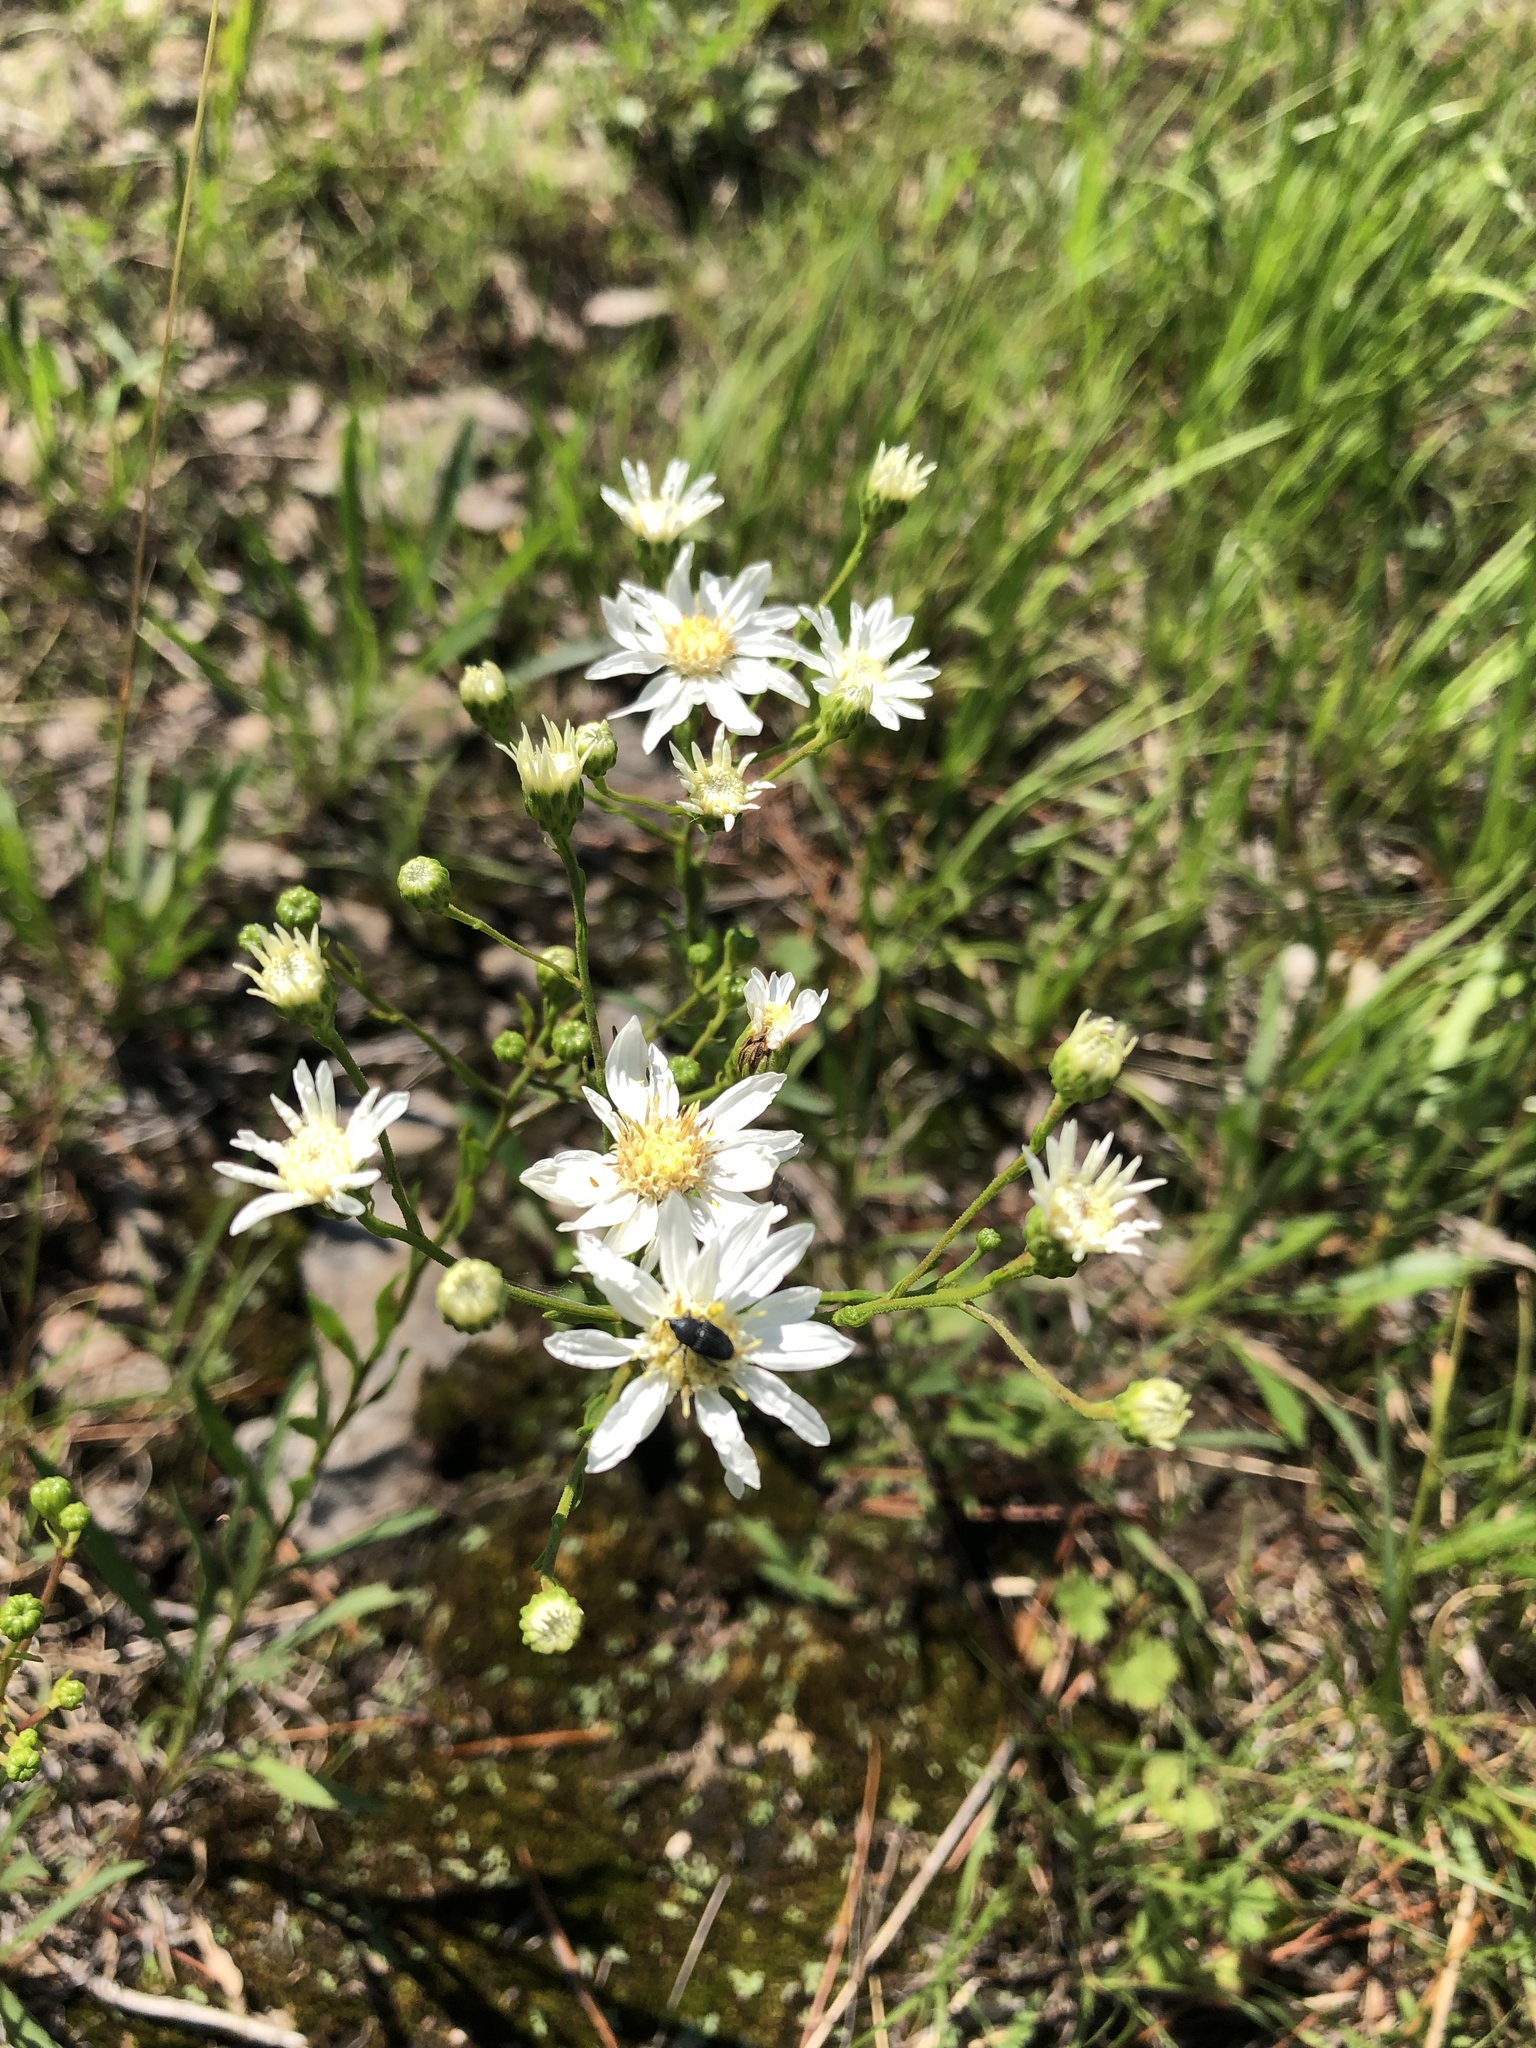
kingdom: Plantae
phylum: Tracheophyta
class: Magnoliopsida
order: Asterales
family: Asteraceae
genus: Solidago
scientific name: Solidago ptarmicoides
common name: White flat-top goldenrod
